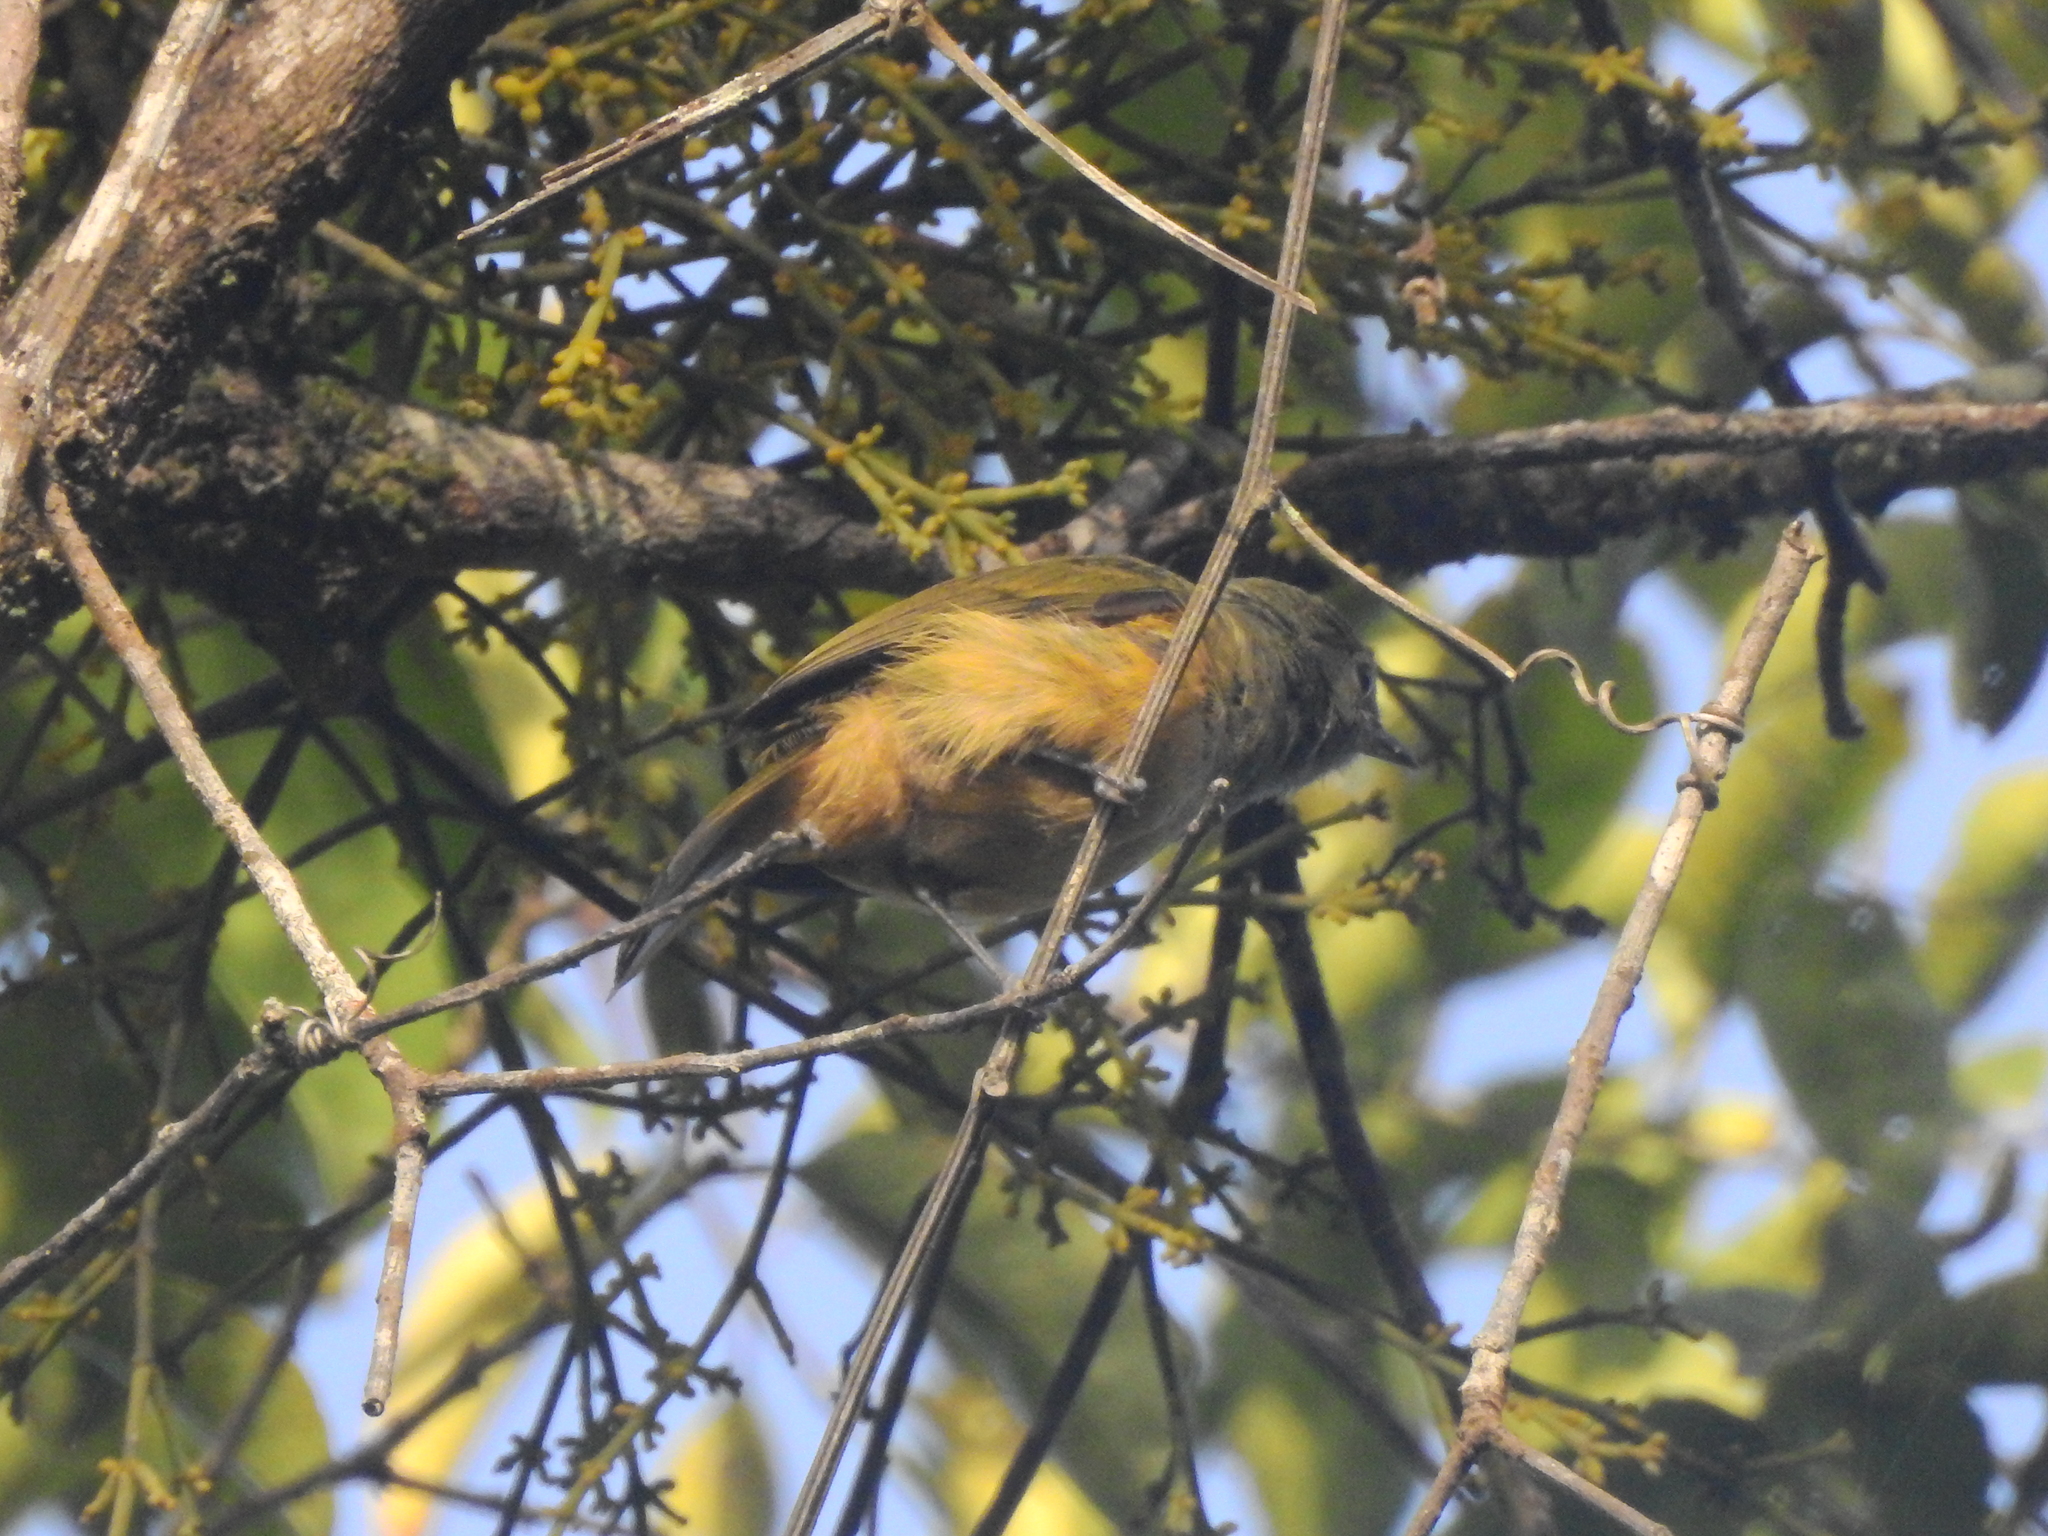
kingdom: Animalia
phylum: Chordata
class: Aves
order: Passeriformes
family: Tyrannidae
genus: Mionectes
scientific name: Mionectes oleagineus
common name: Ochre-bellied flycatcher
